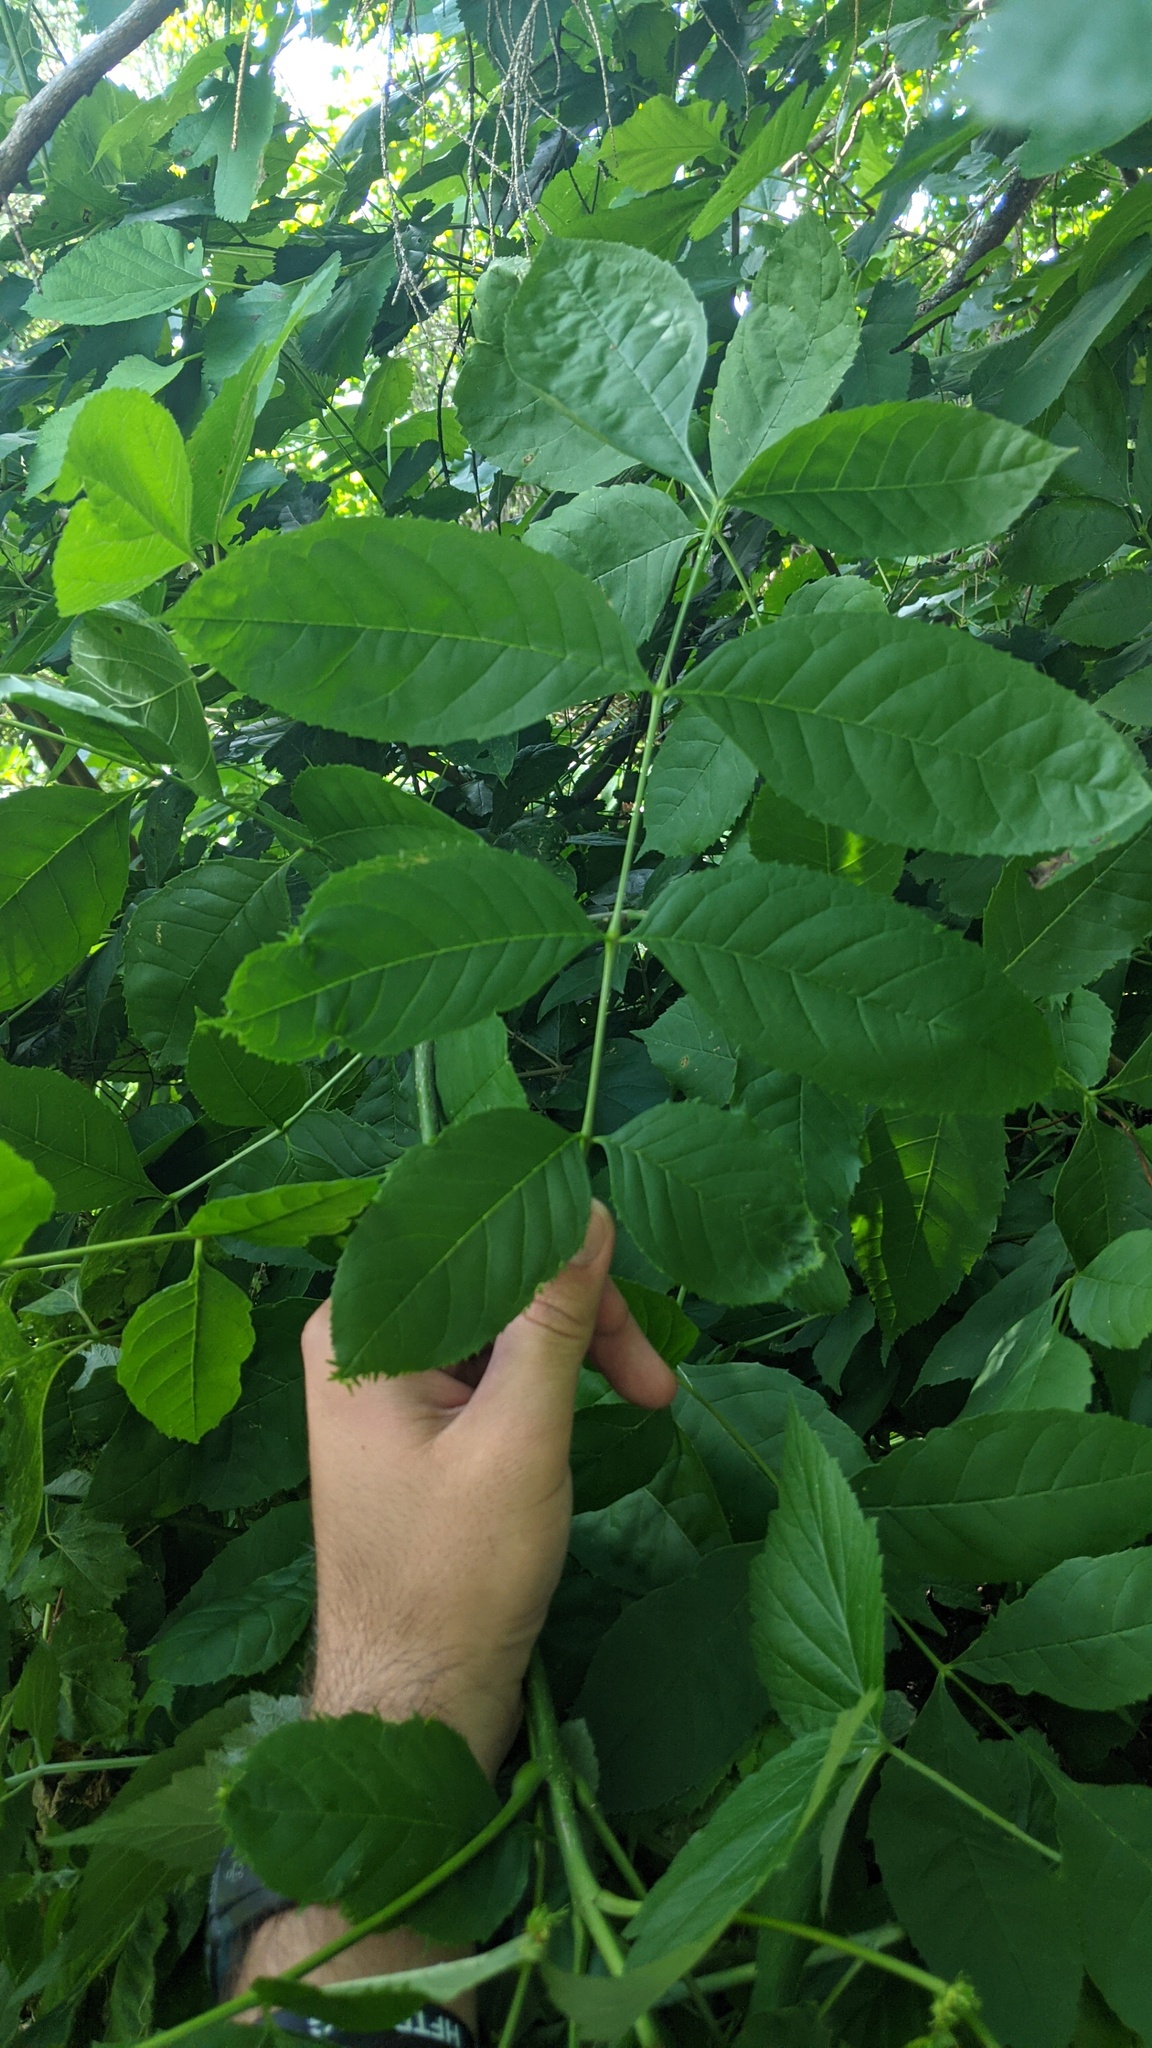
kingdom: Plantae
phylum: Tracheophyta
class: Magnoliopsida
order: Lamiales
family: Oleaceae
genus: Fraxinus
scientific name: Fraxinus pennsylvanica
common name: Green ash
